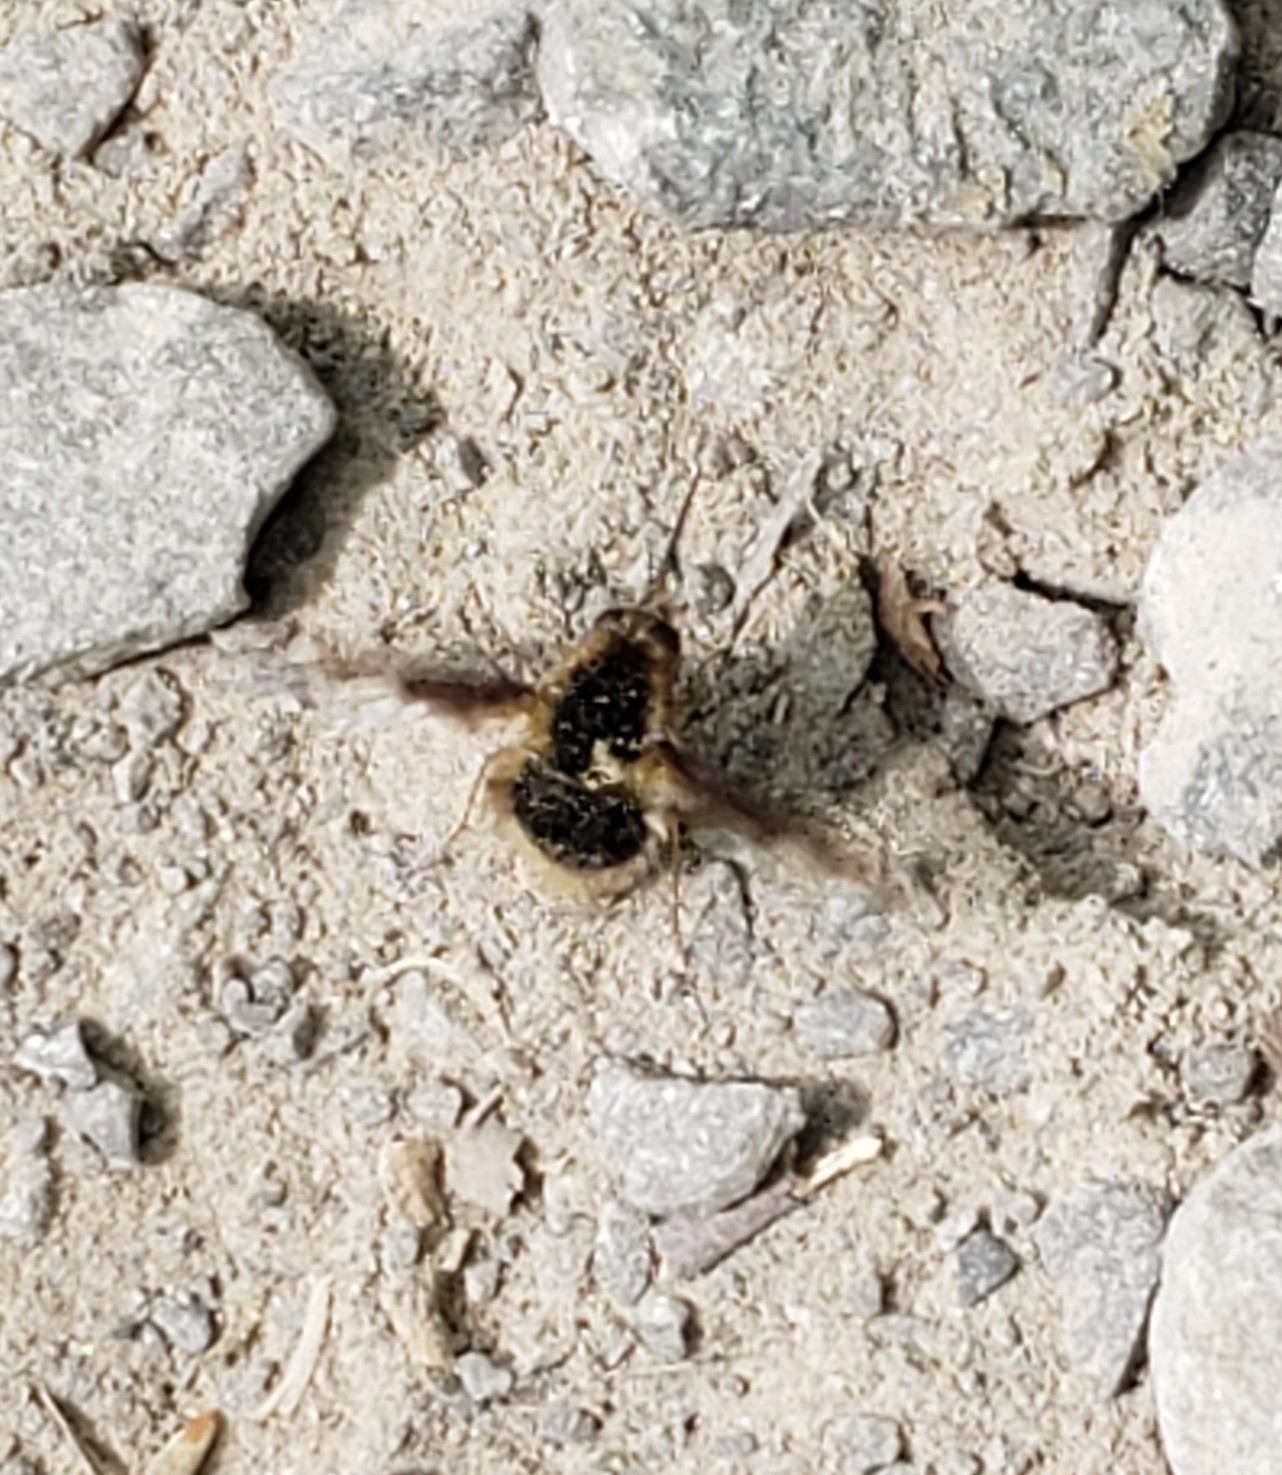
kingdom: Animalia
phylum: Arthropoda
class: Insecta
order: Diptera
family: Bombyliidae
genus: Bombylius
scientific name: Bombylius major
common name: Bee fly
